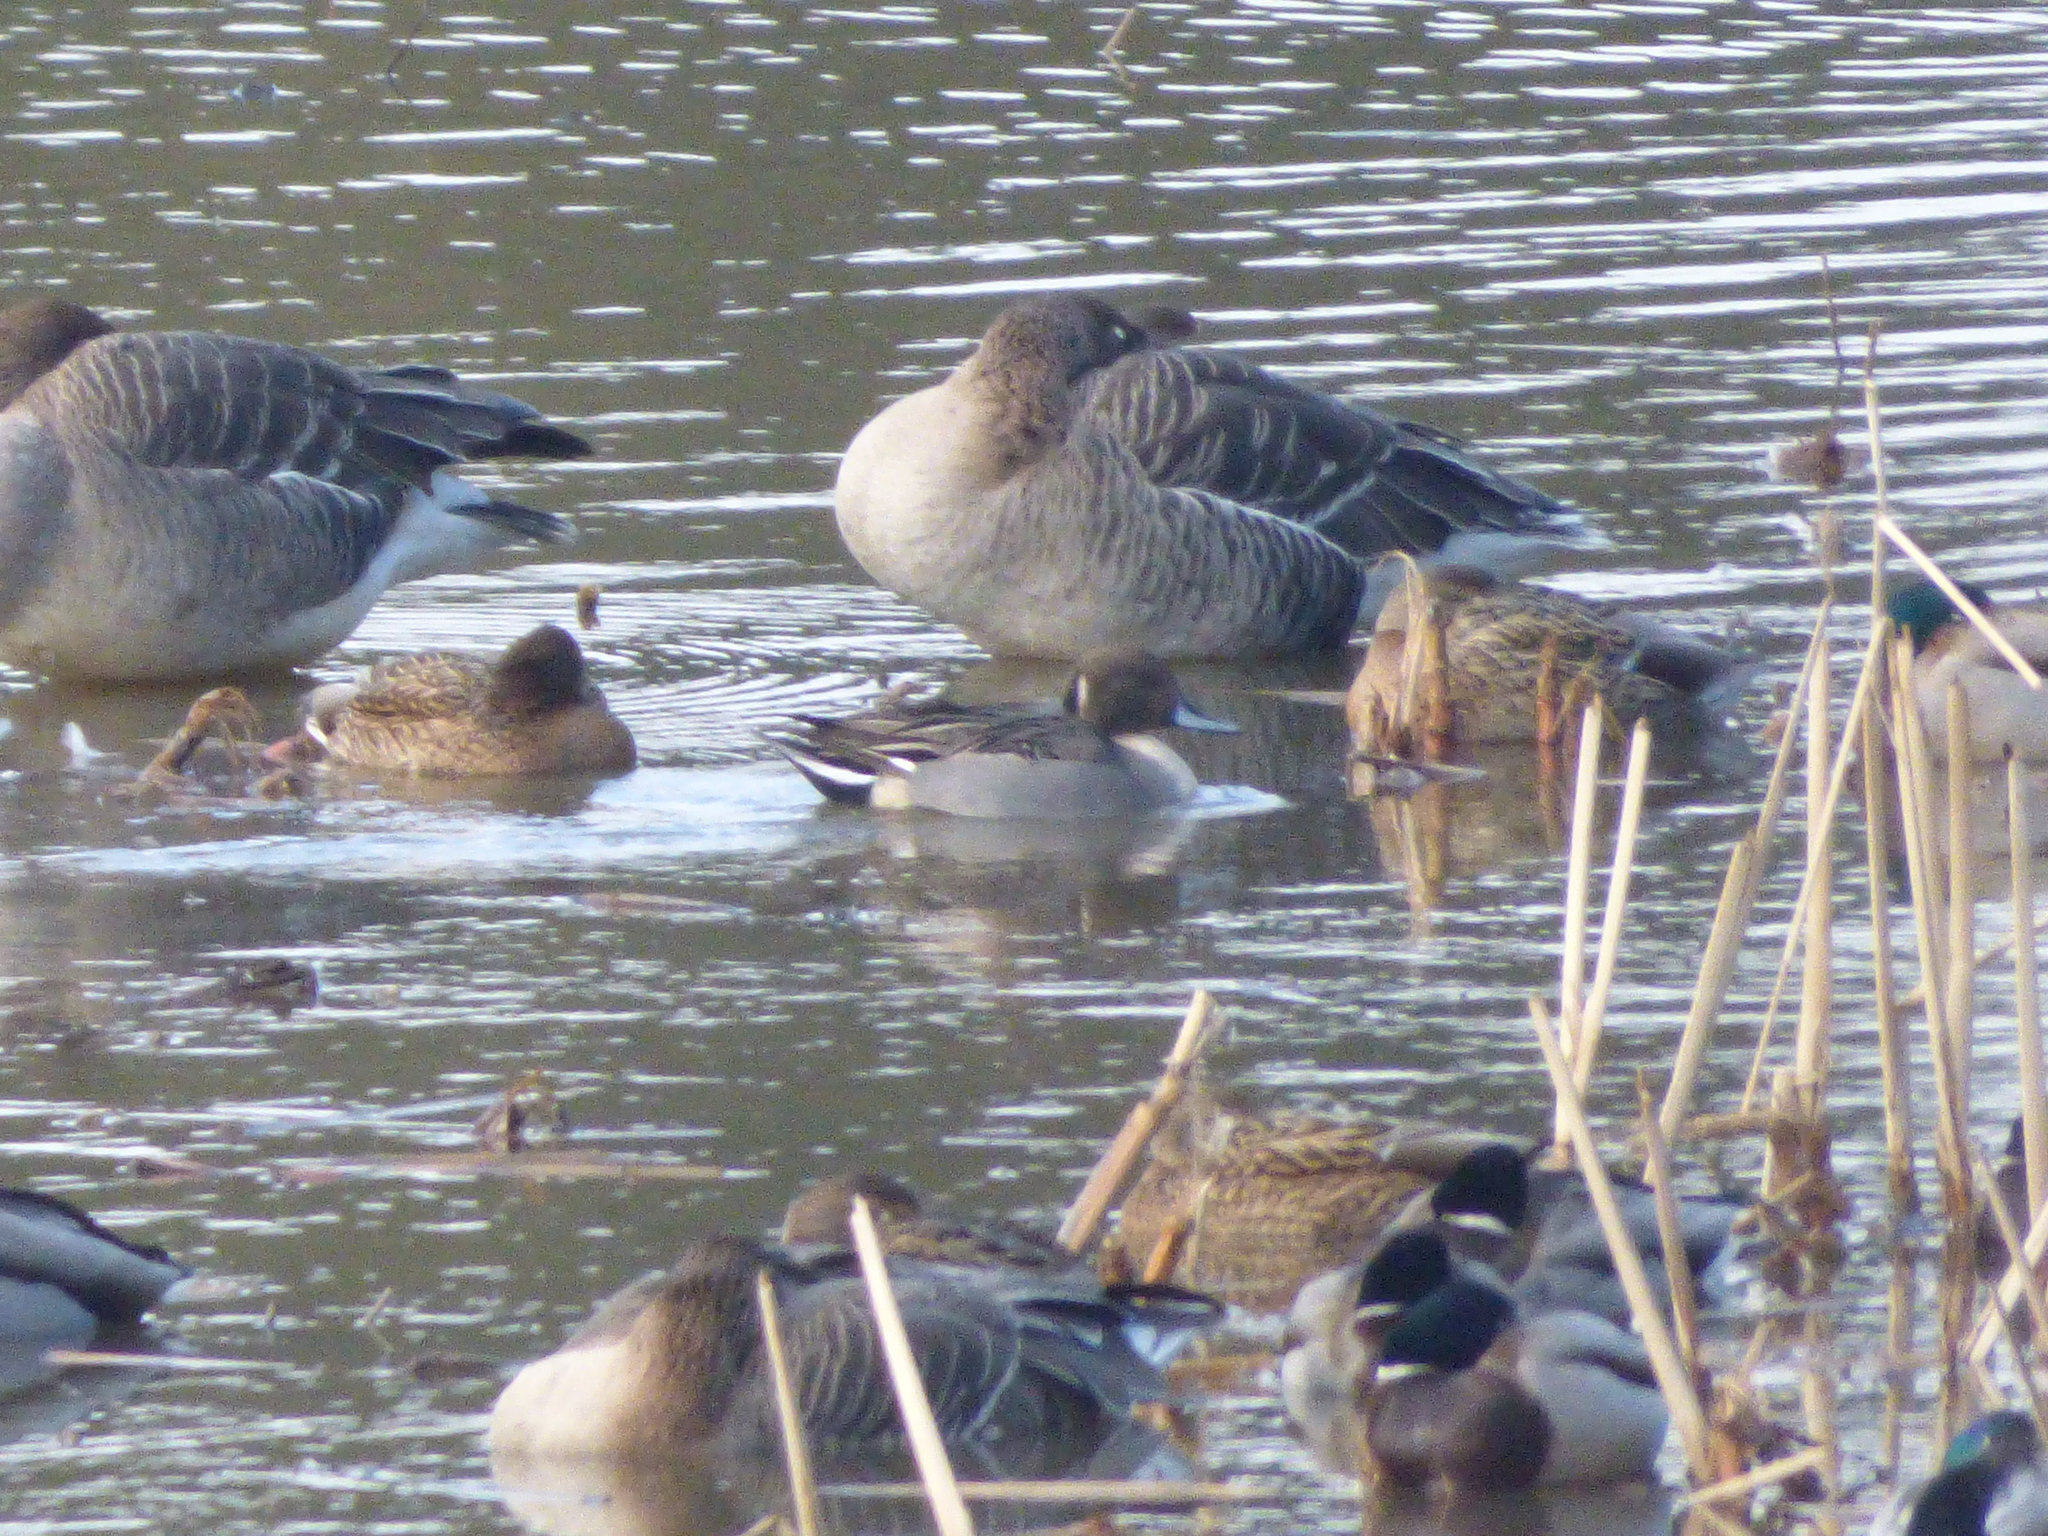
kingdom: Animalia
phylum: Chordata
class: Aves
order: Anseriformes
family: Anatidae
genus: Anas
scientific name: Anas platyrhynchos
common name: Mallard
